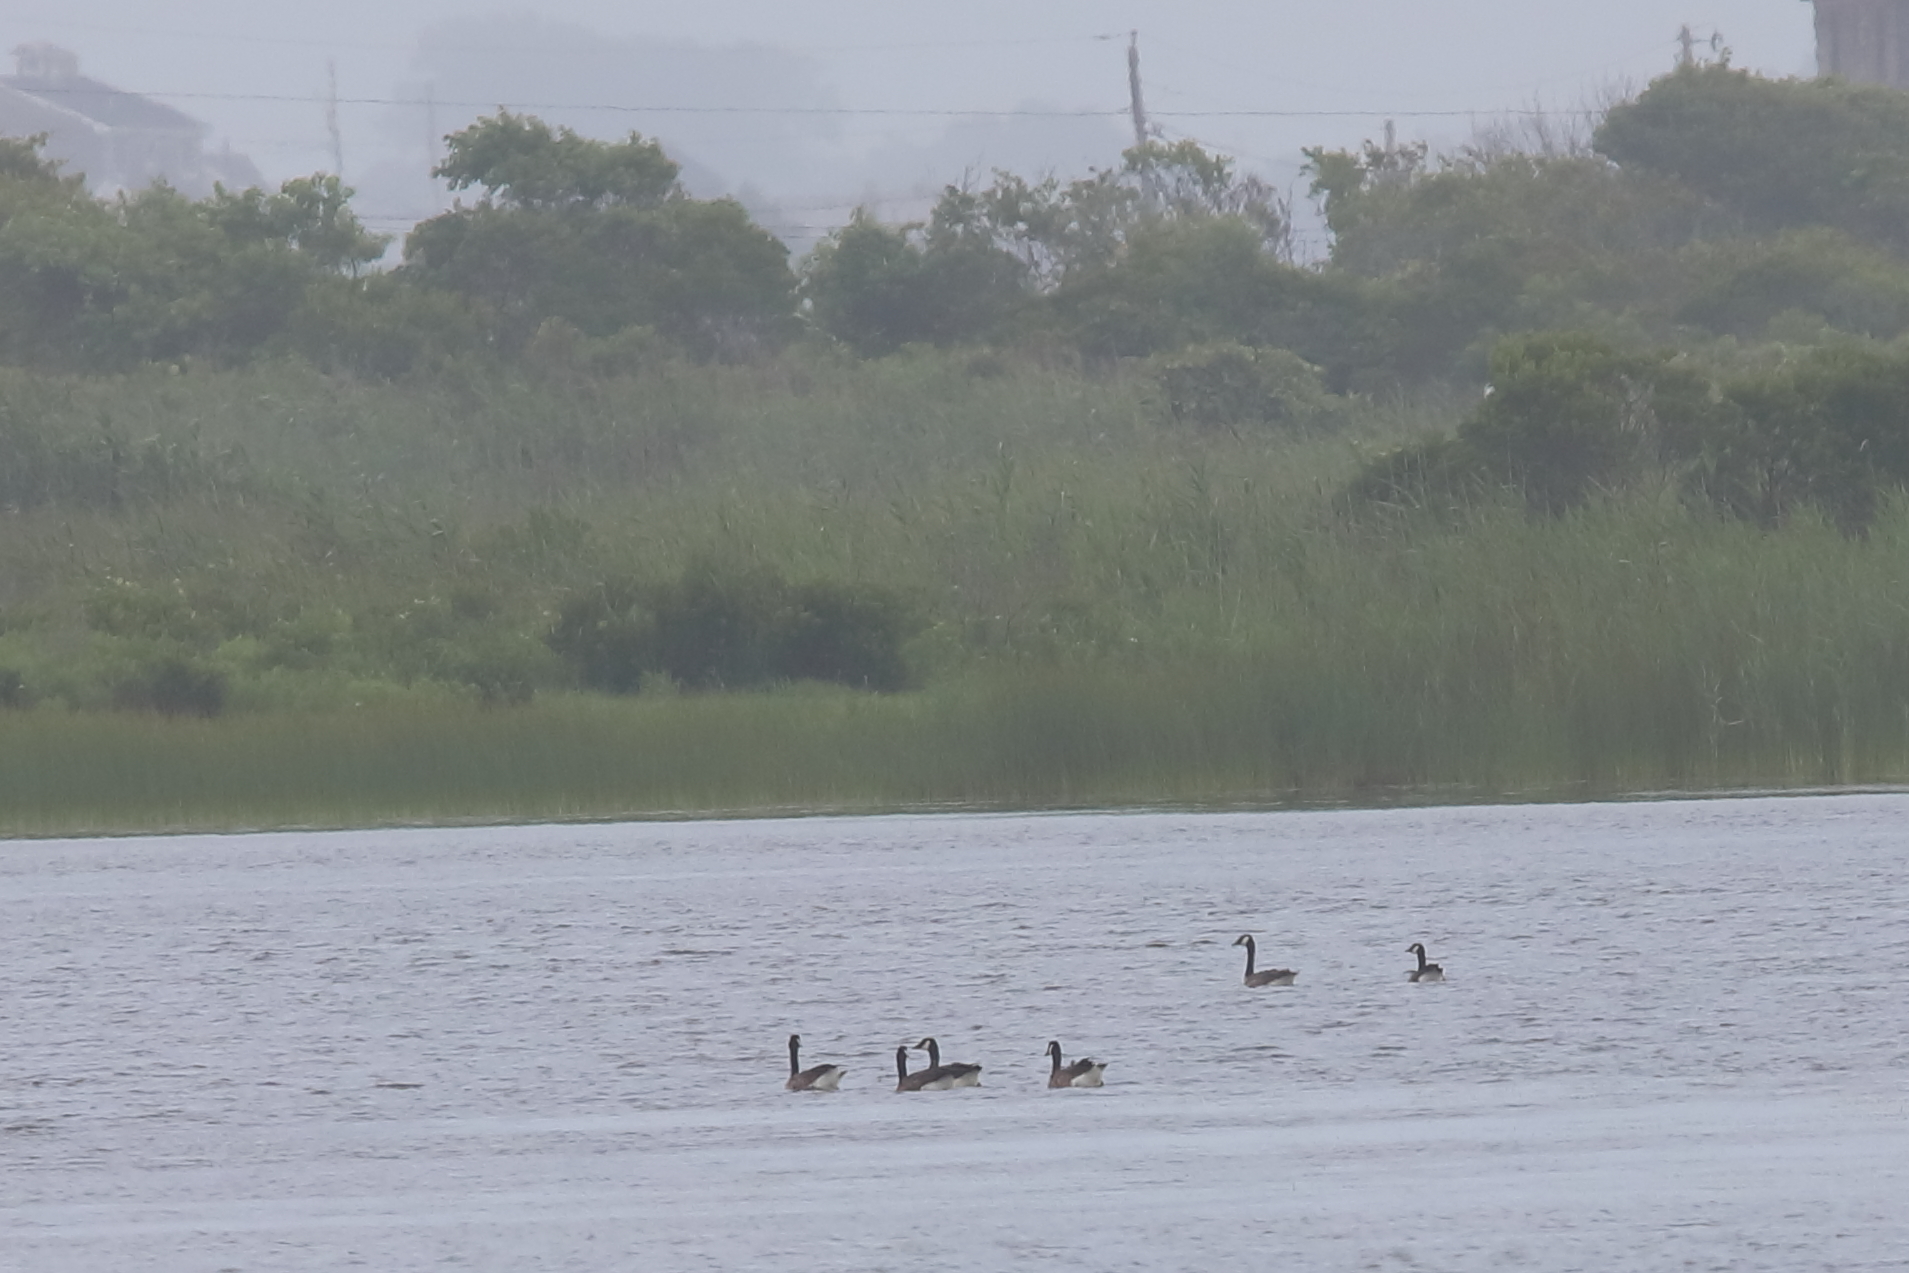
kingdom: Animalia
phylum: Chordata
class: Aves
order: Anseriformes
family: Anatidae
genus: Branta
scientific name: Branta canadensis
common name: Canada goose
